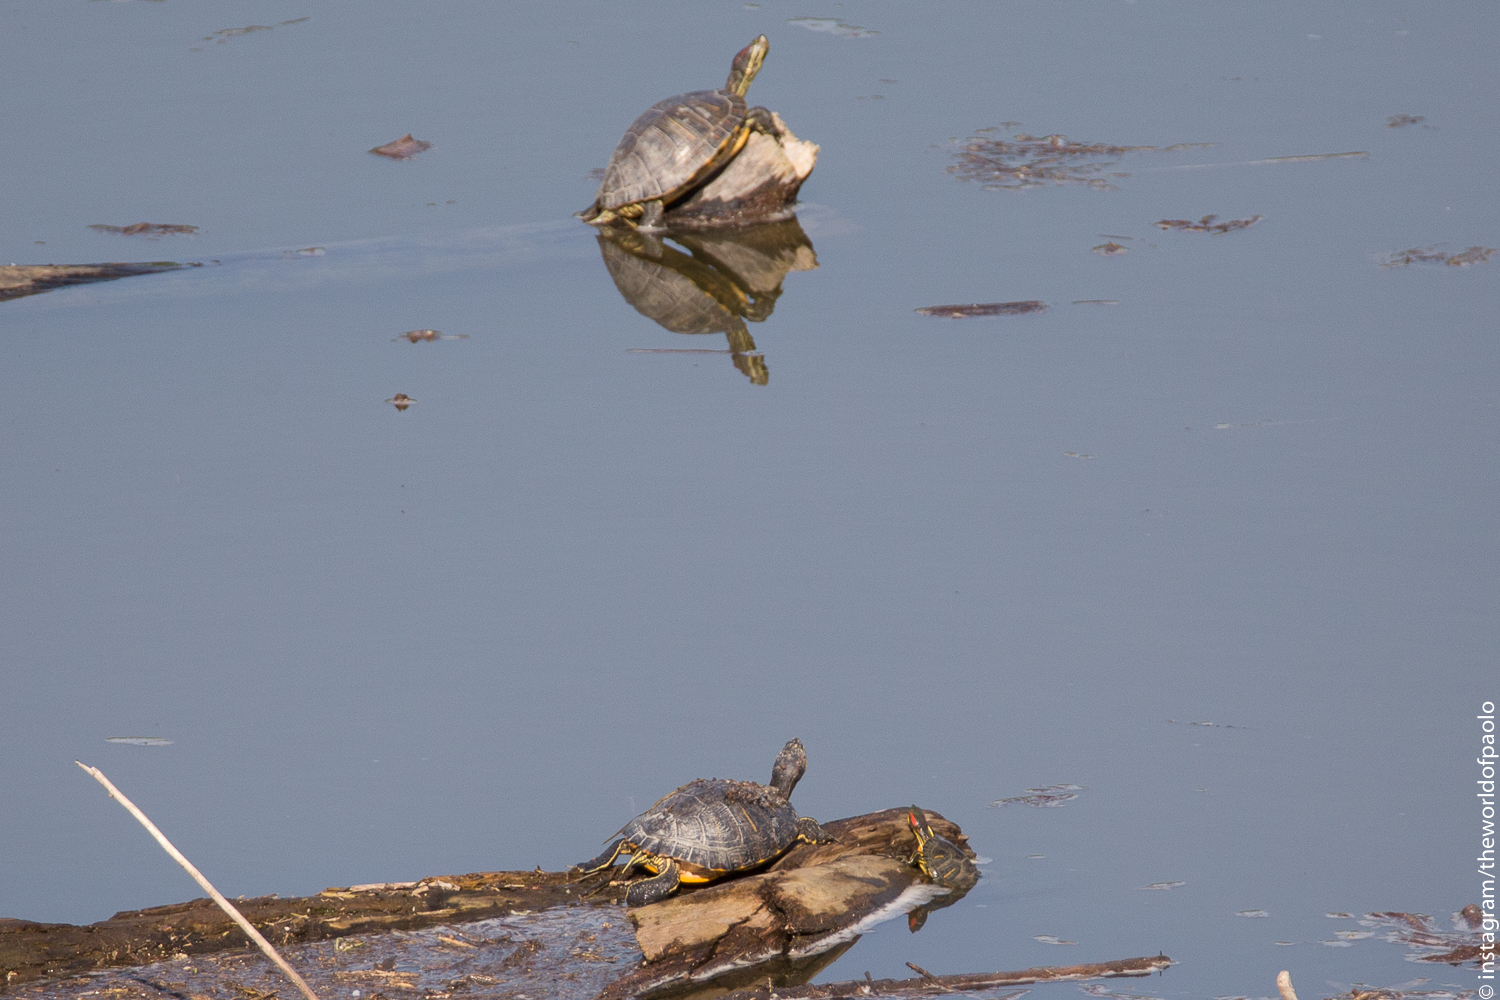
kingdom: Animalia
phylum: Chordata
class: Testudines
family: Emydidae
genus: Trachemys
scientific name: Trachemys scripta
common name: Slider
